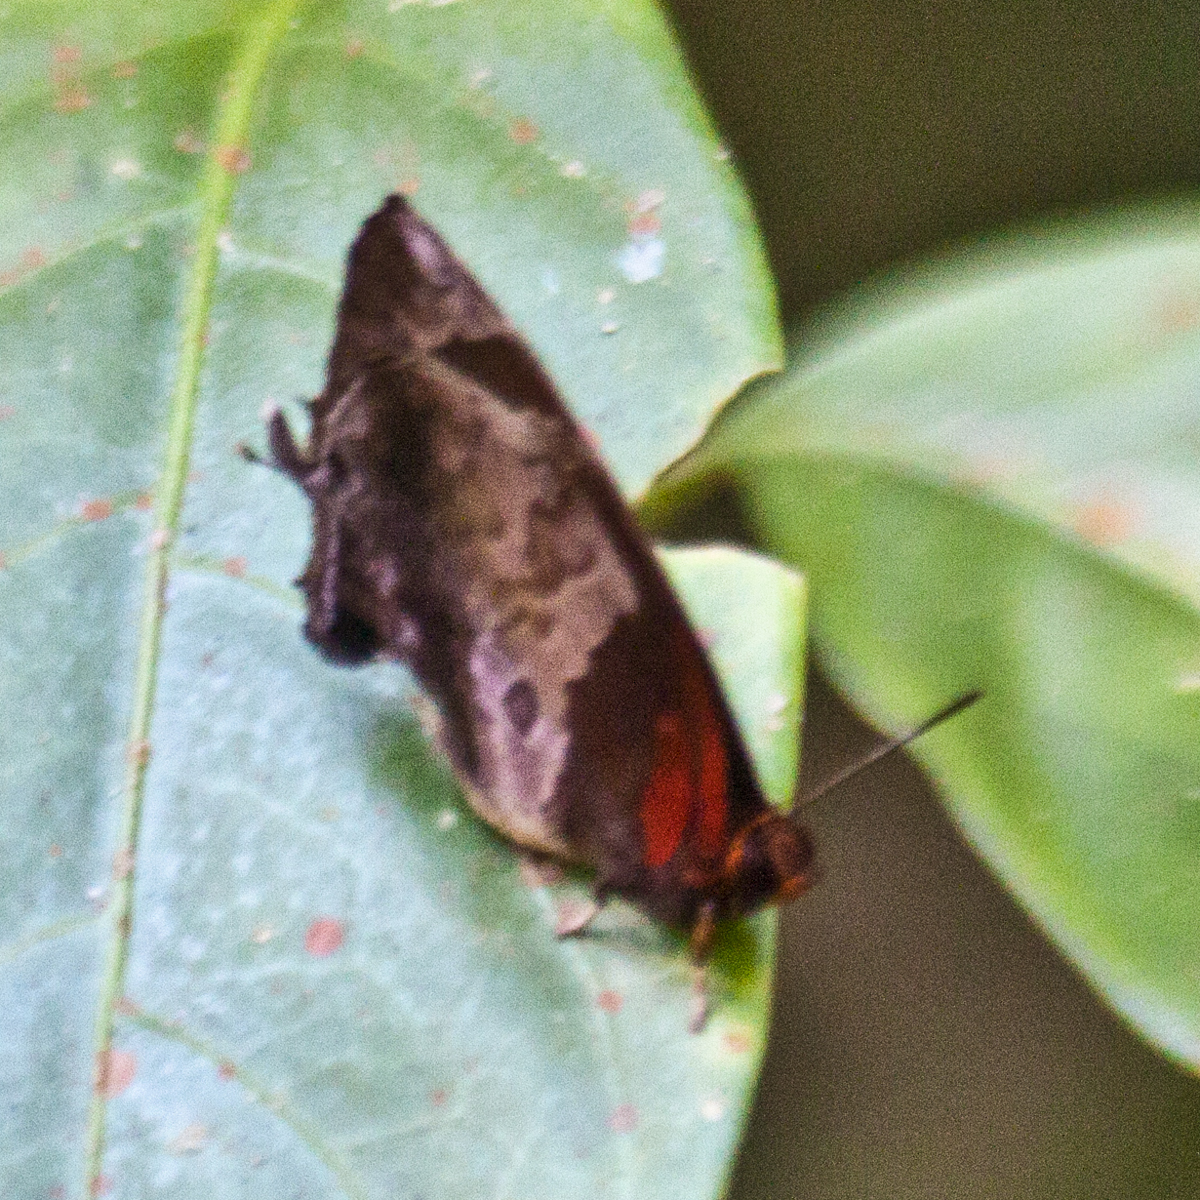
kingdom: Animalia
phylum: Arthropoda
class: Insecta
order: Lepidoptera
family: Lycaenidae
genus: Flos
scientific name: Flos apidanus
